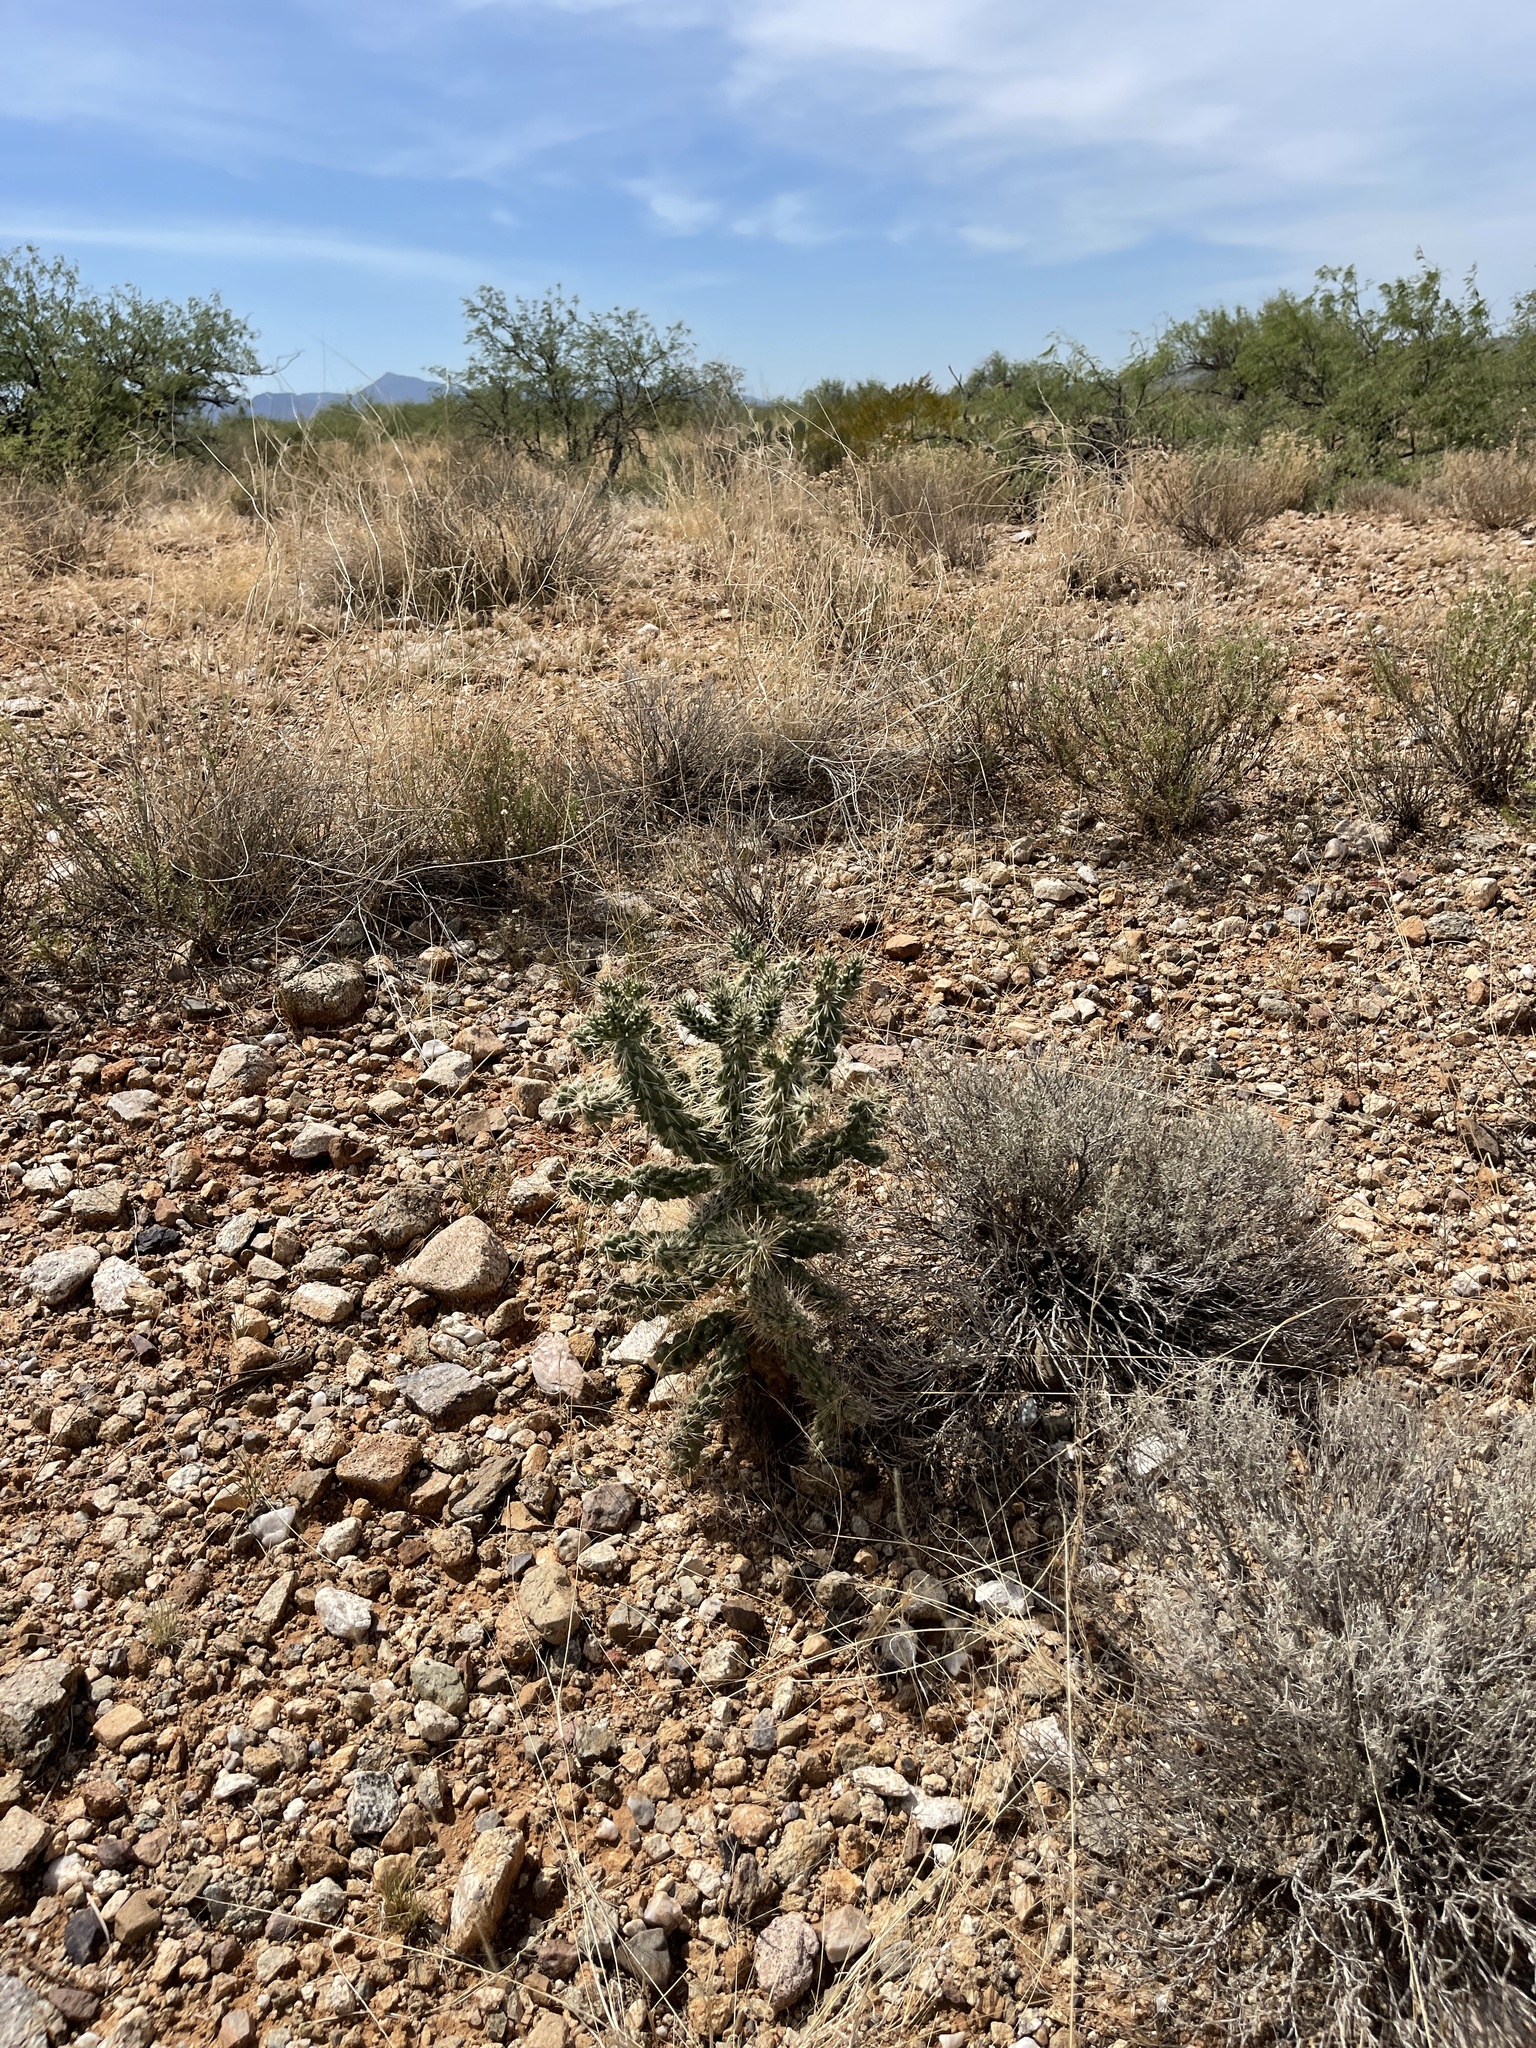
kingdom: Plantae
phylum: Tracheophyta
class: Magnoliopsida
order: Caryophyllales
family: Cactaceae
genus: Cylindropuntia
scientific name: Cylindropuntia fulgida
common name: Jumping cholla
